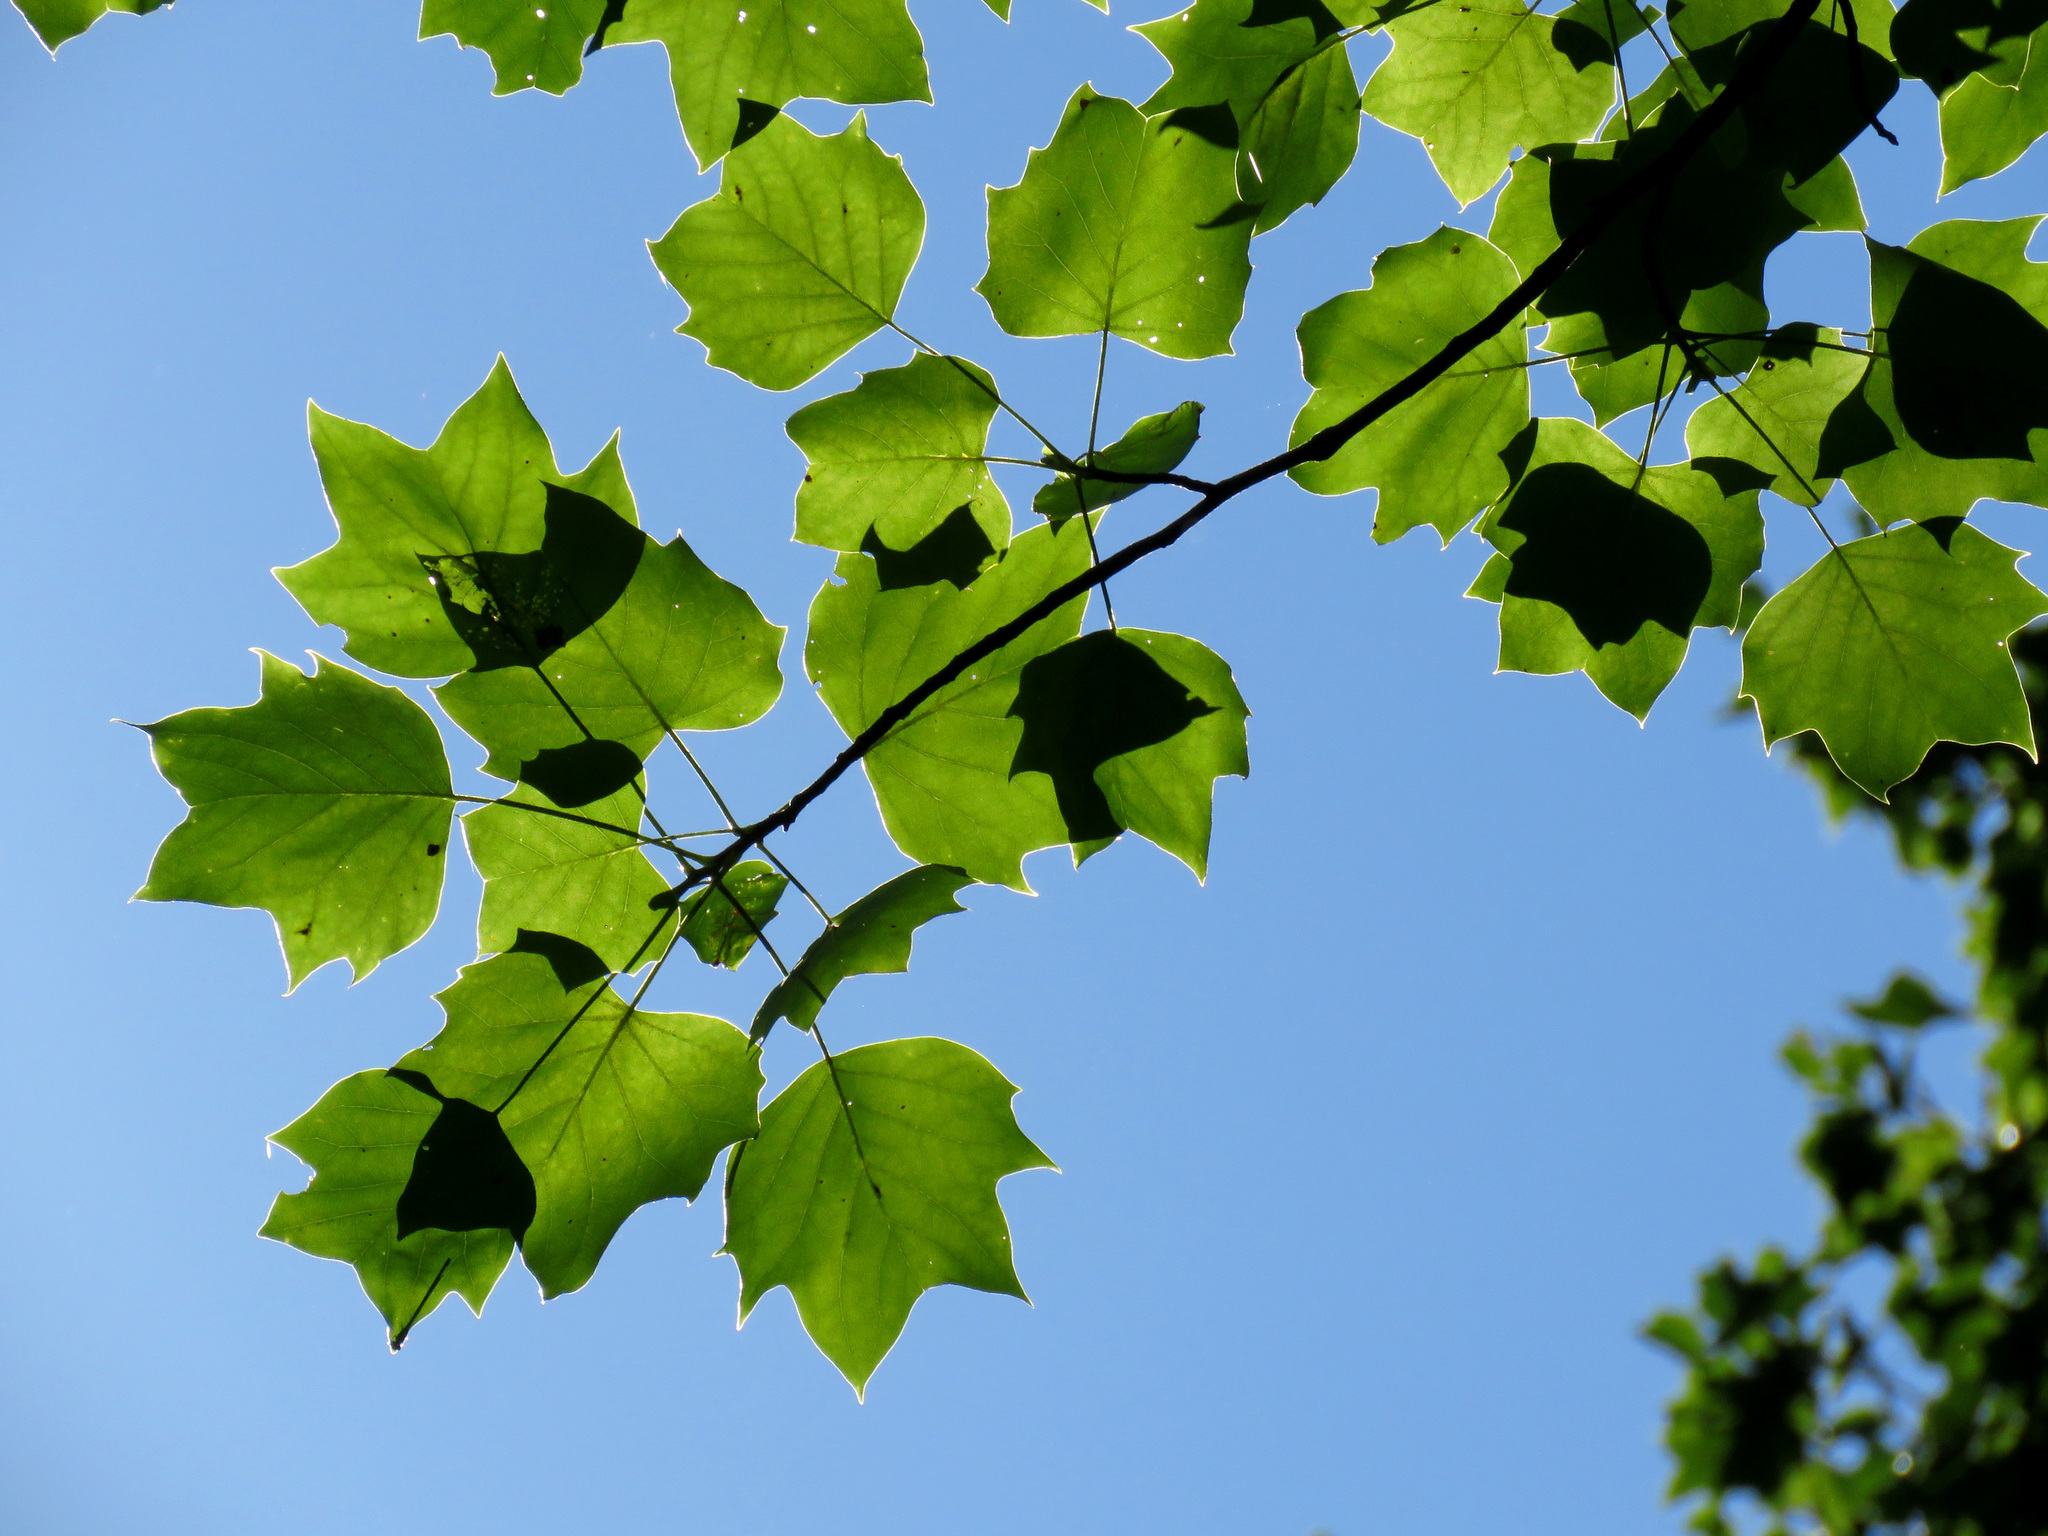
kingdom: Plantae
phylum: Tracheophyta
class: Magnoliopsida
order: Magnoliales
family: Magnoliaceae
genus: Liriodendron
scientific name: Liriodendron tulipifera
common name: Tulip tree
